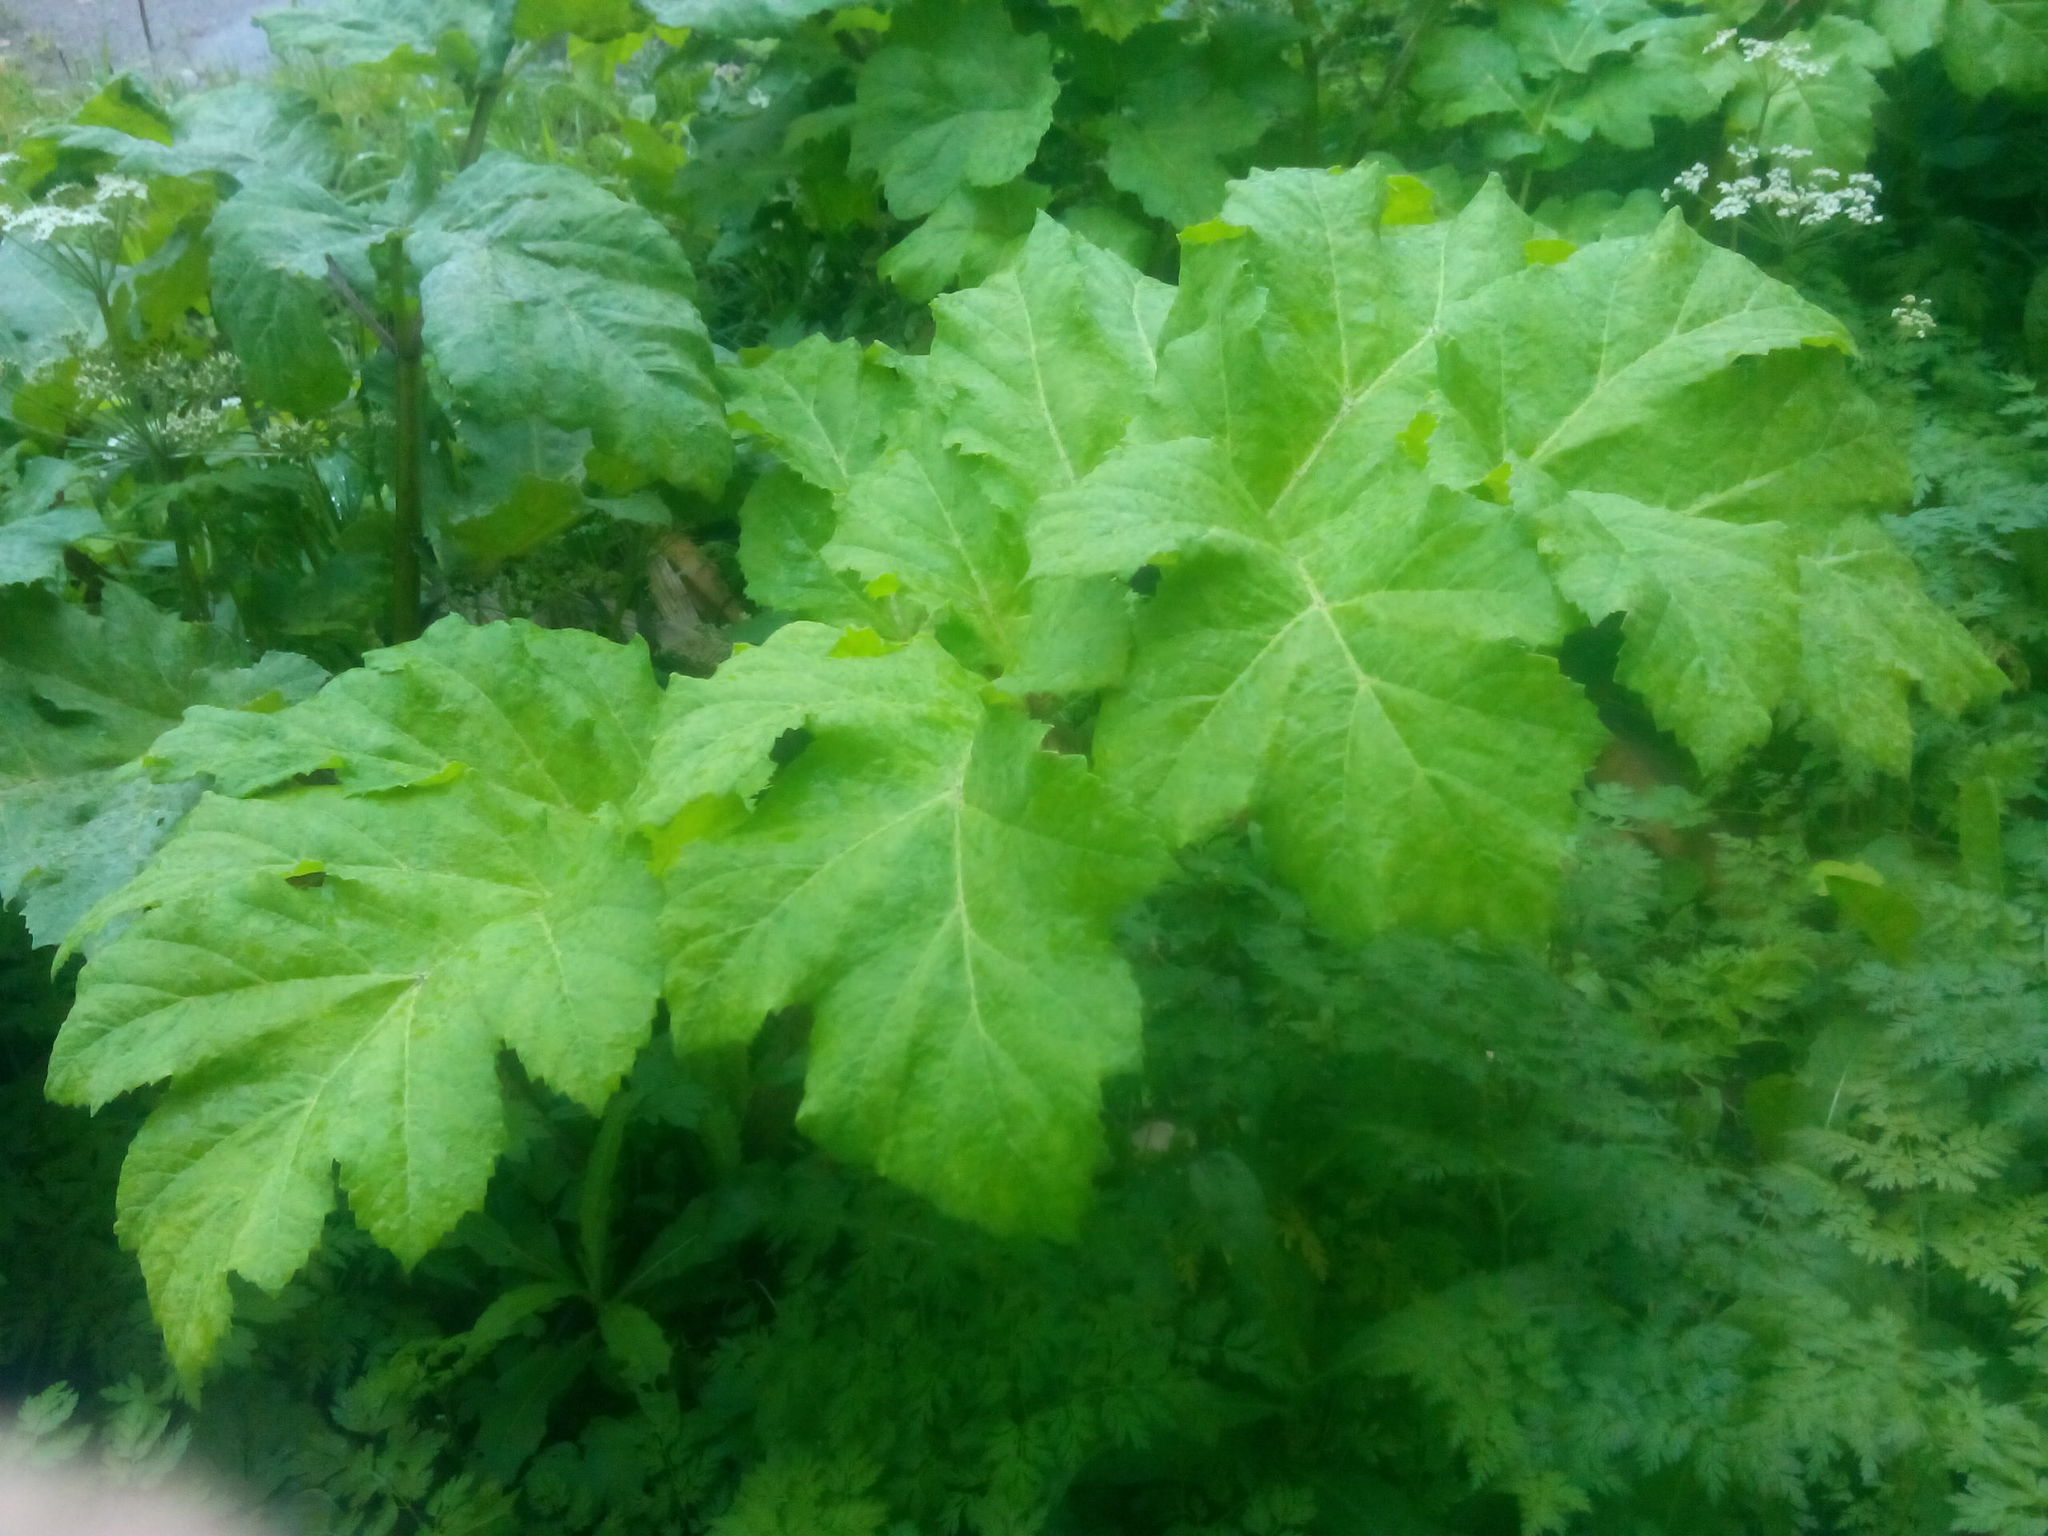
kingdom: Plantae
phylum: Tracheophyta
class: Magnoliopsida
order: Apiales
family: Apiaceae
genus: Heracleum
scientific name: Heracleum sosnowskyi
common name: Sosnowsky's hogweed
